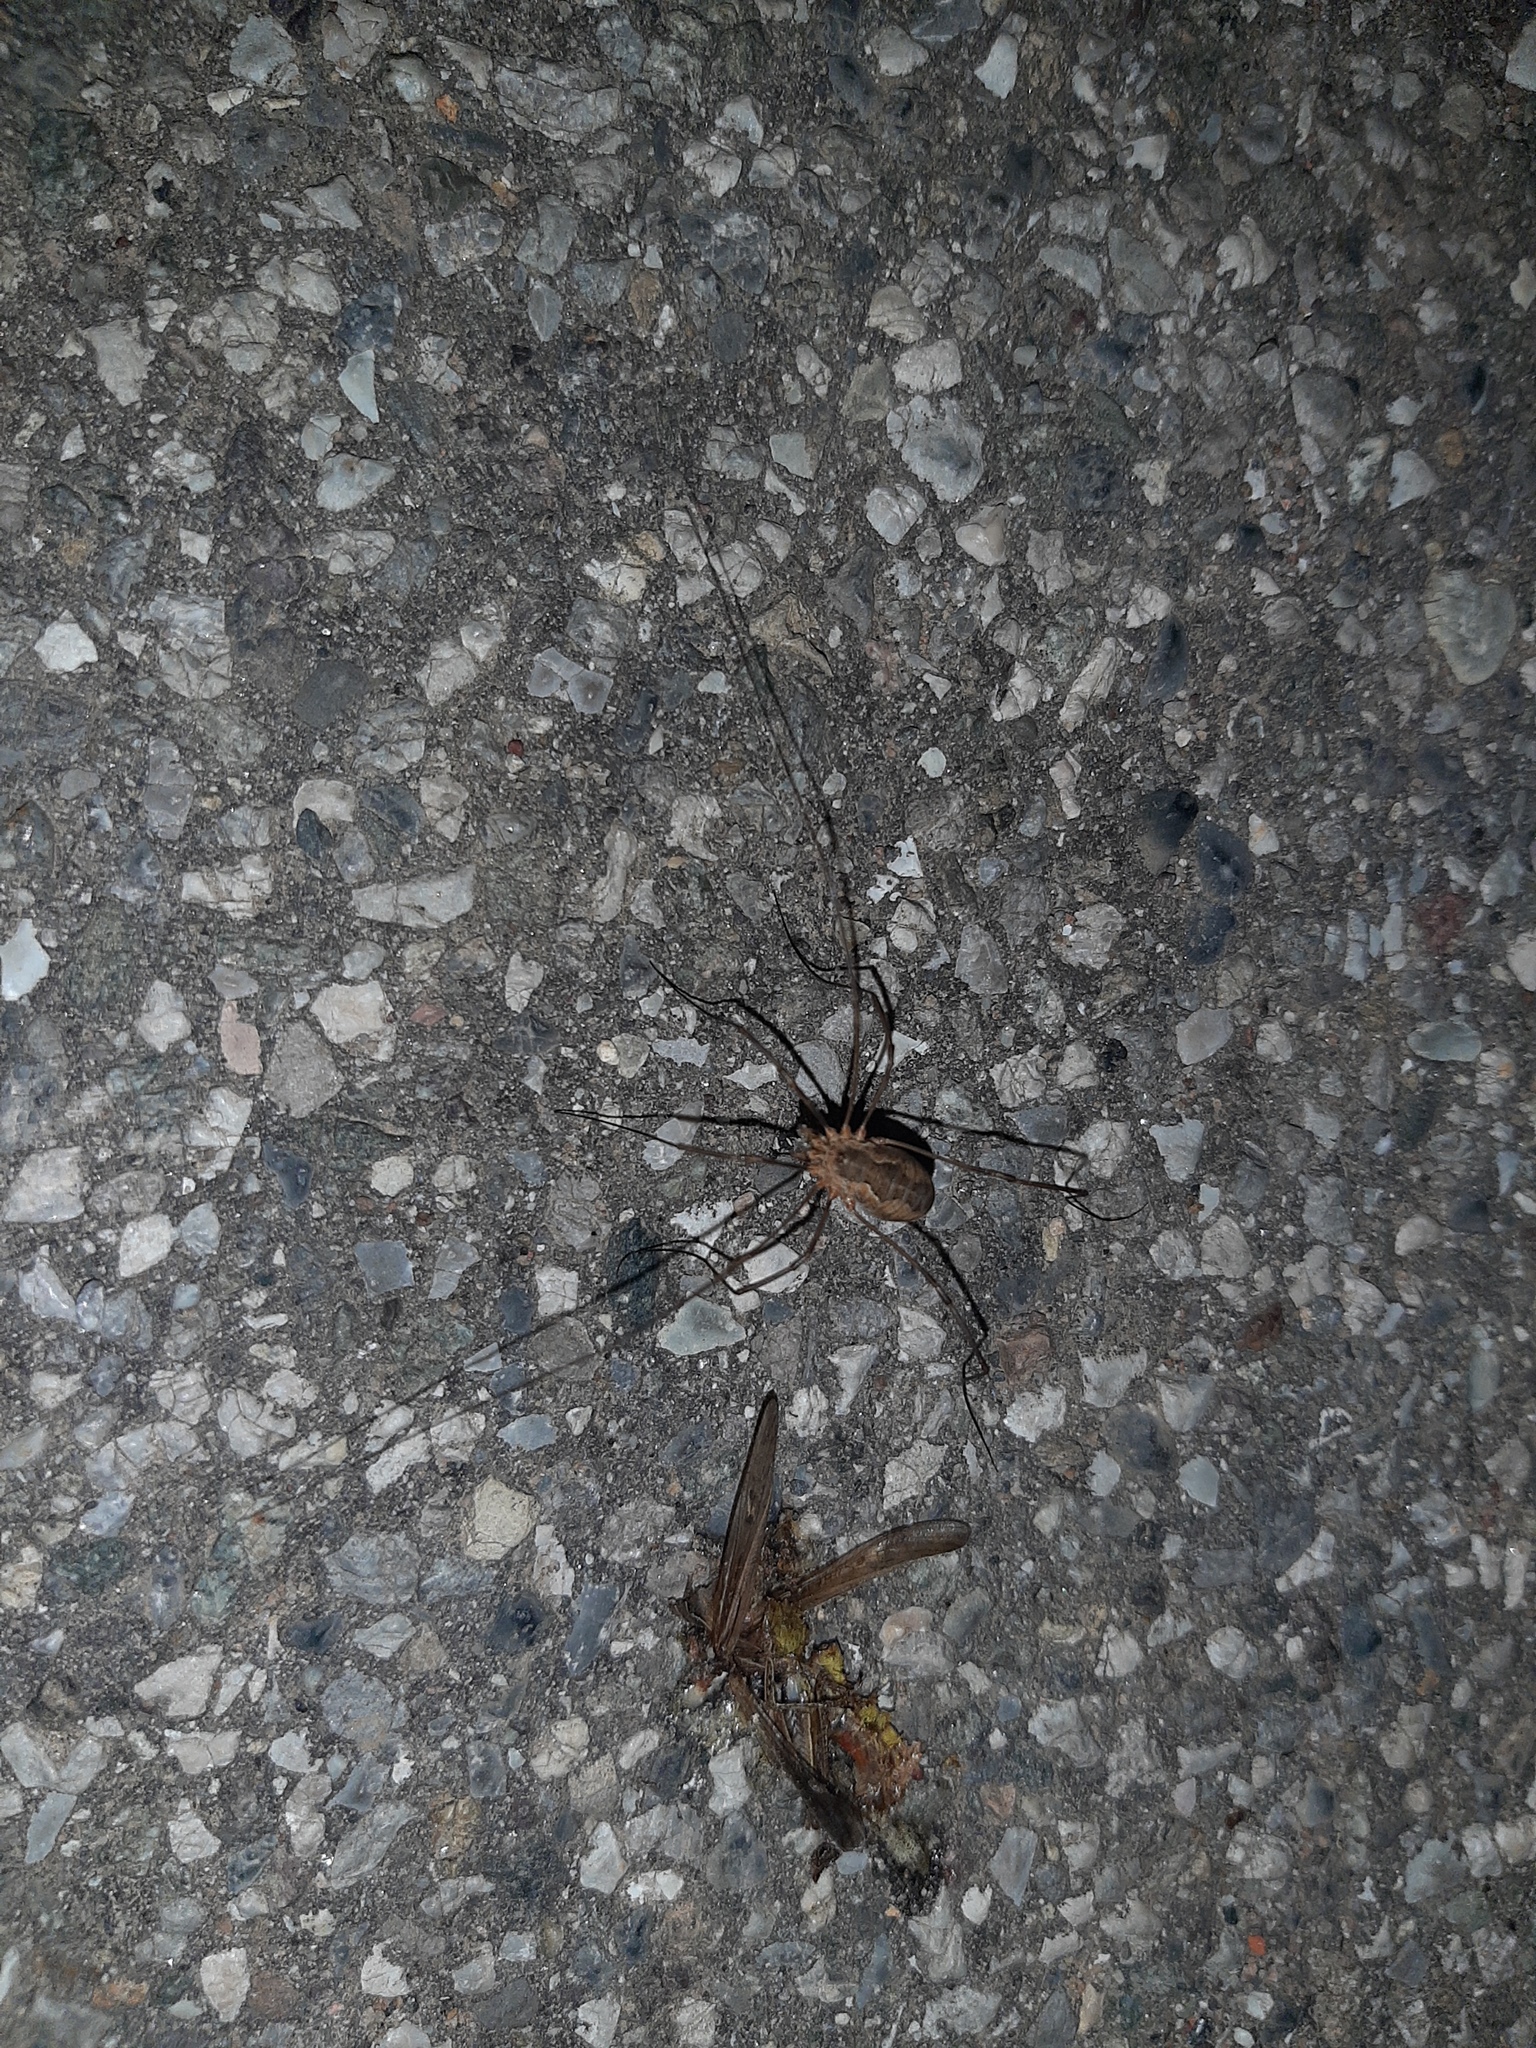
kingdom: Animalia
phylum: Arthropoda
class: Arachnida
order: Opiliones
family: Phalangiidae
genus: Phalangium
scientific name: Phalangium opilio
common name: Daddy longleg
